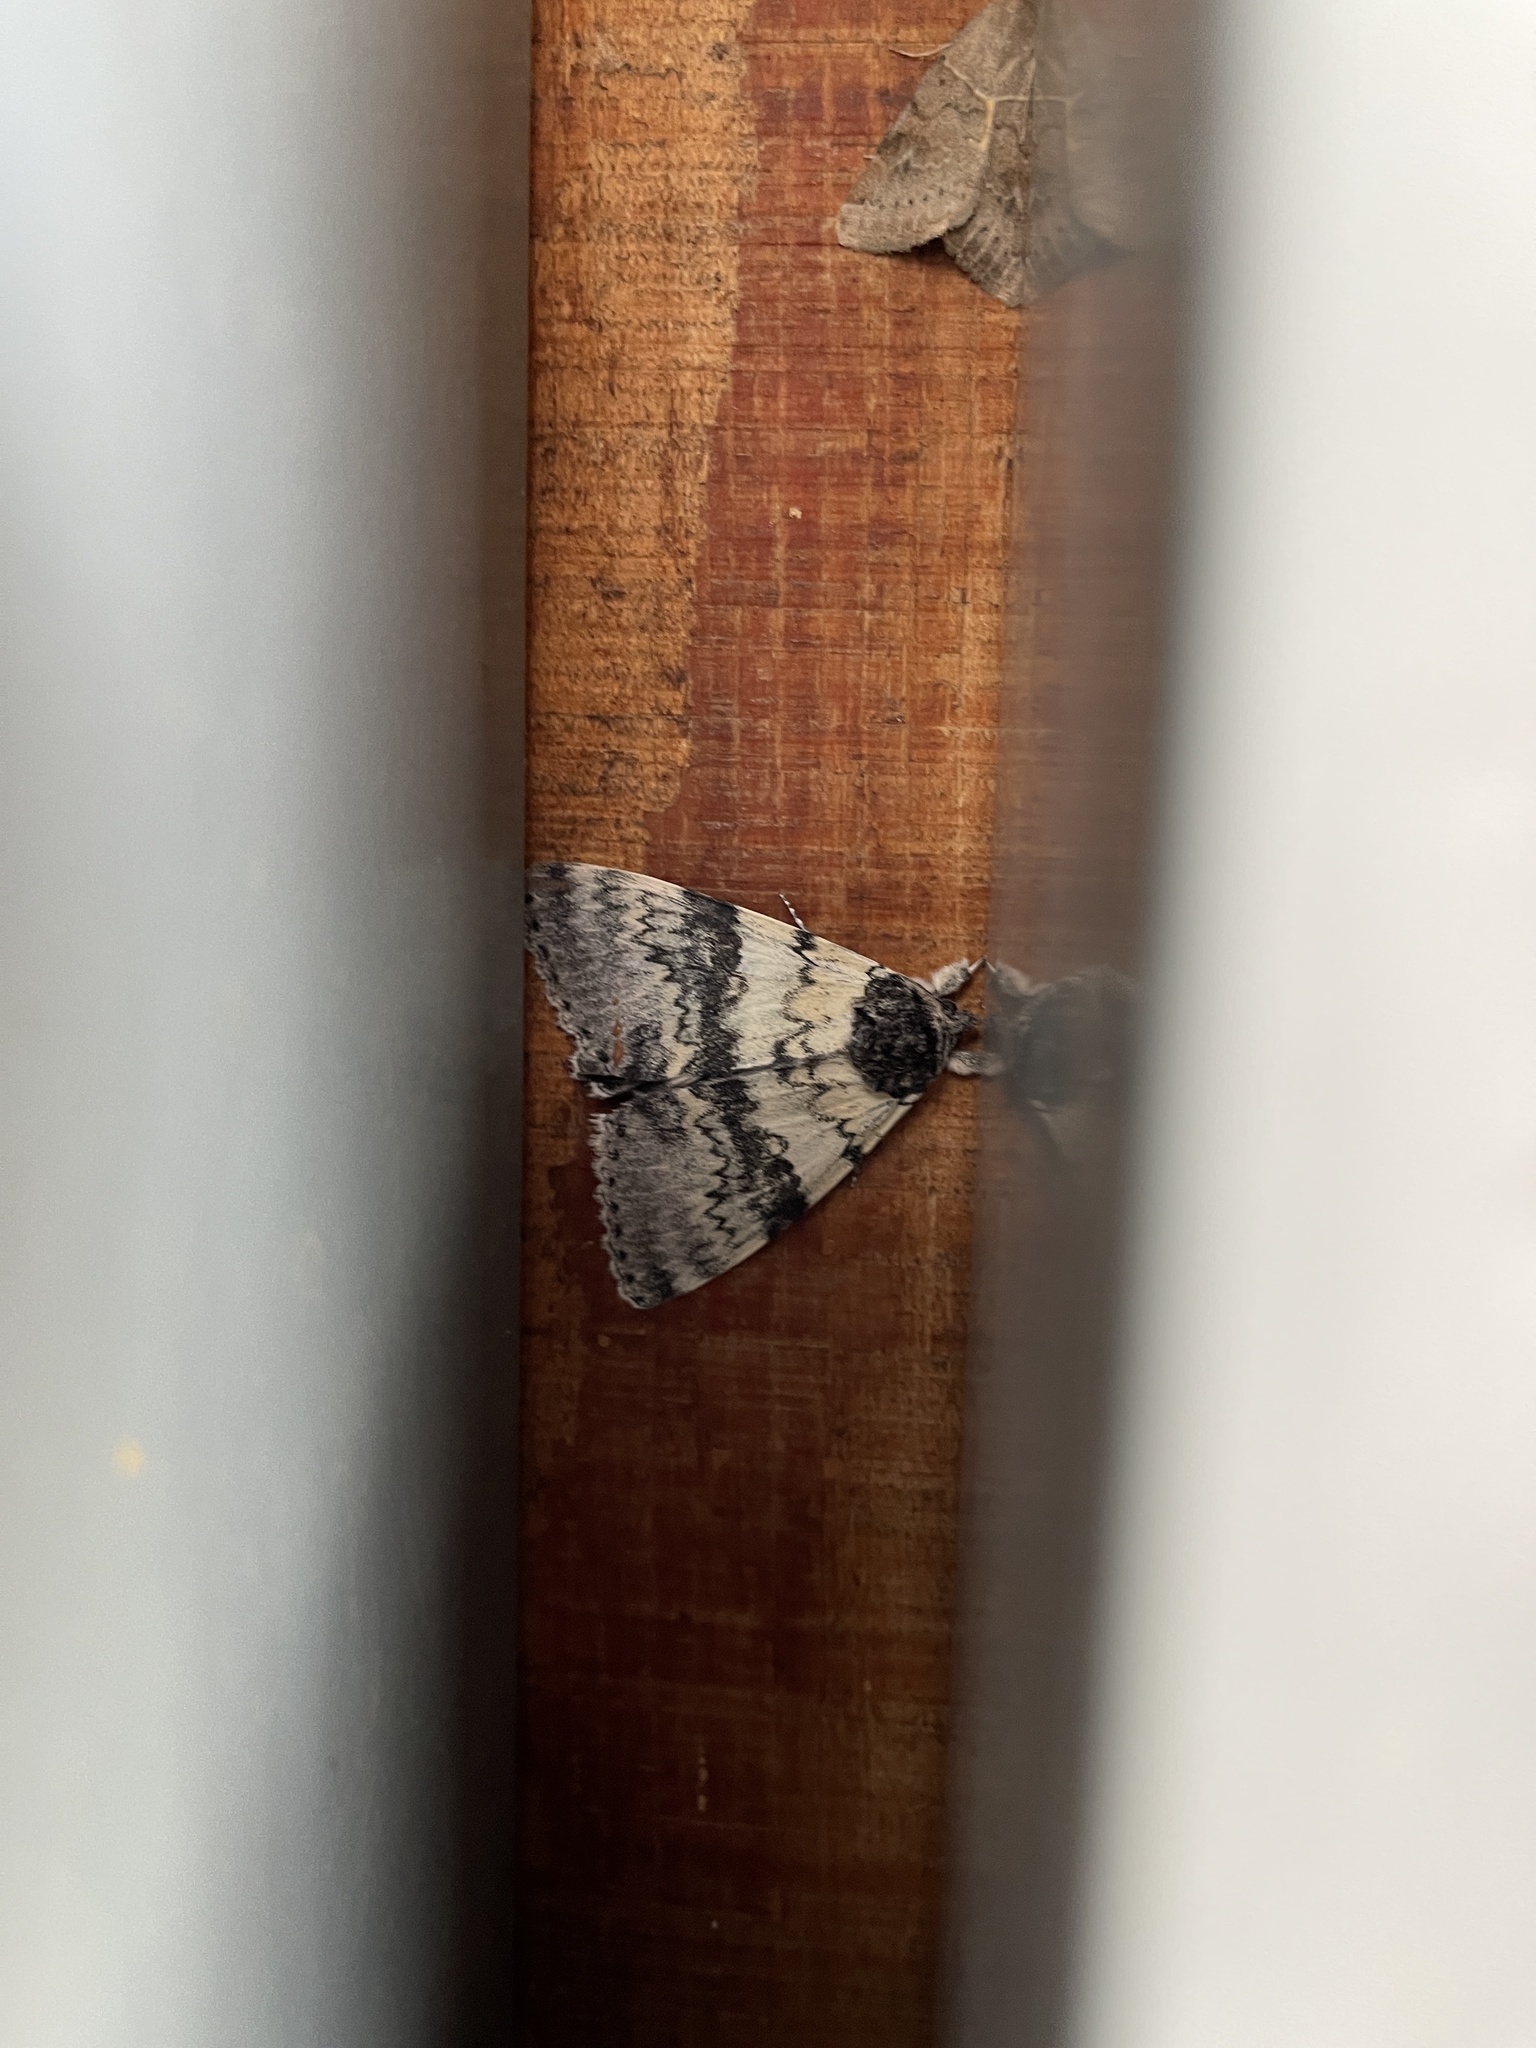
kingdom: Animalia
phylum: Arthropoda
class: Insecta
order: Lepidoptera
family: Erebidae
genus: Catocala
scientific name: Catocala relicta
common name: White underwing
